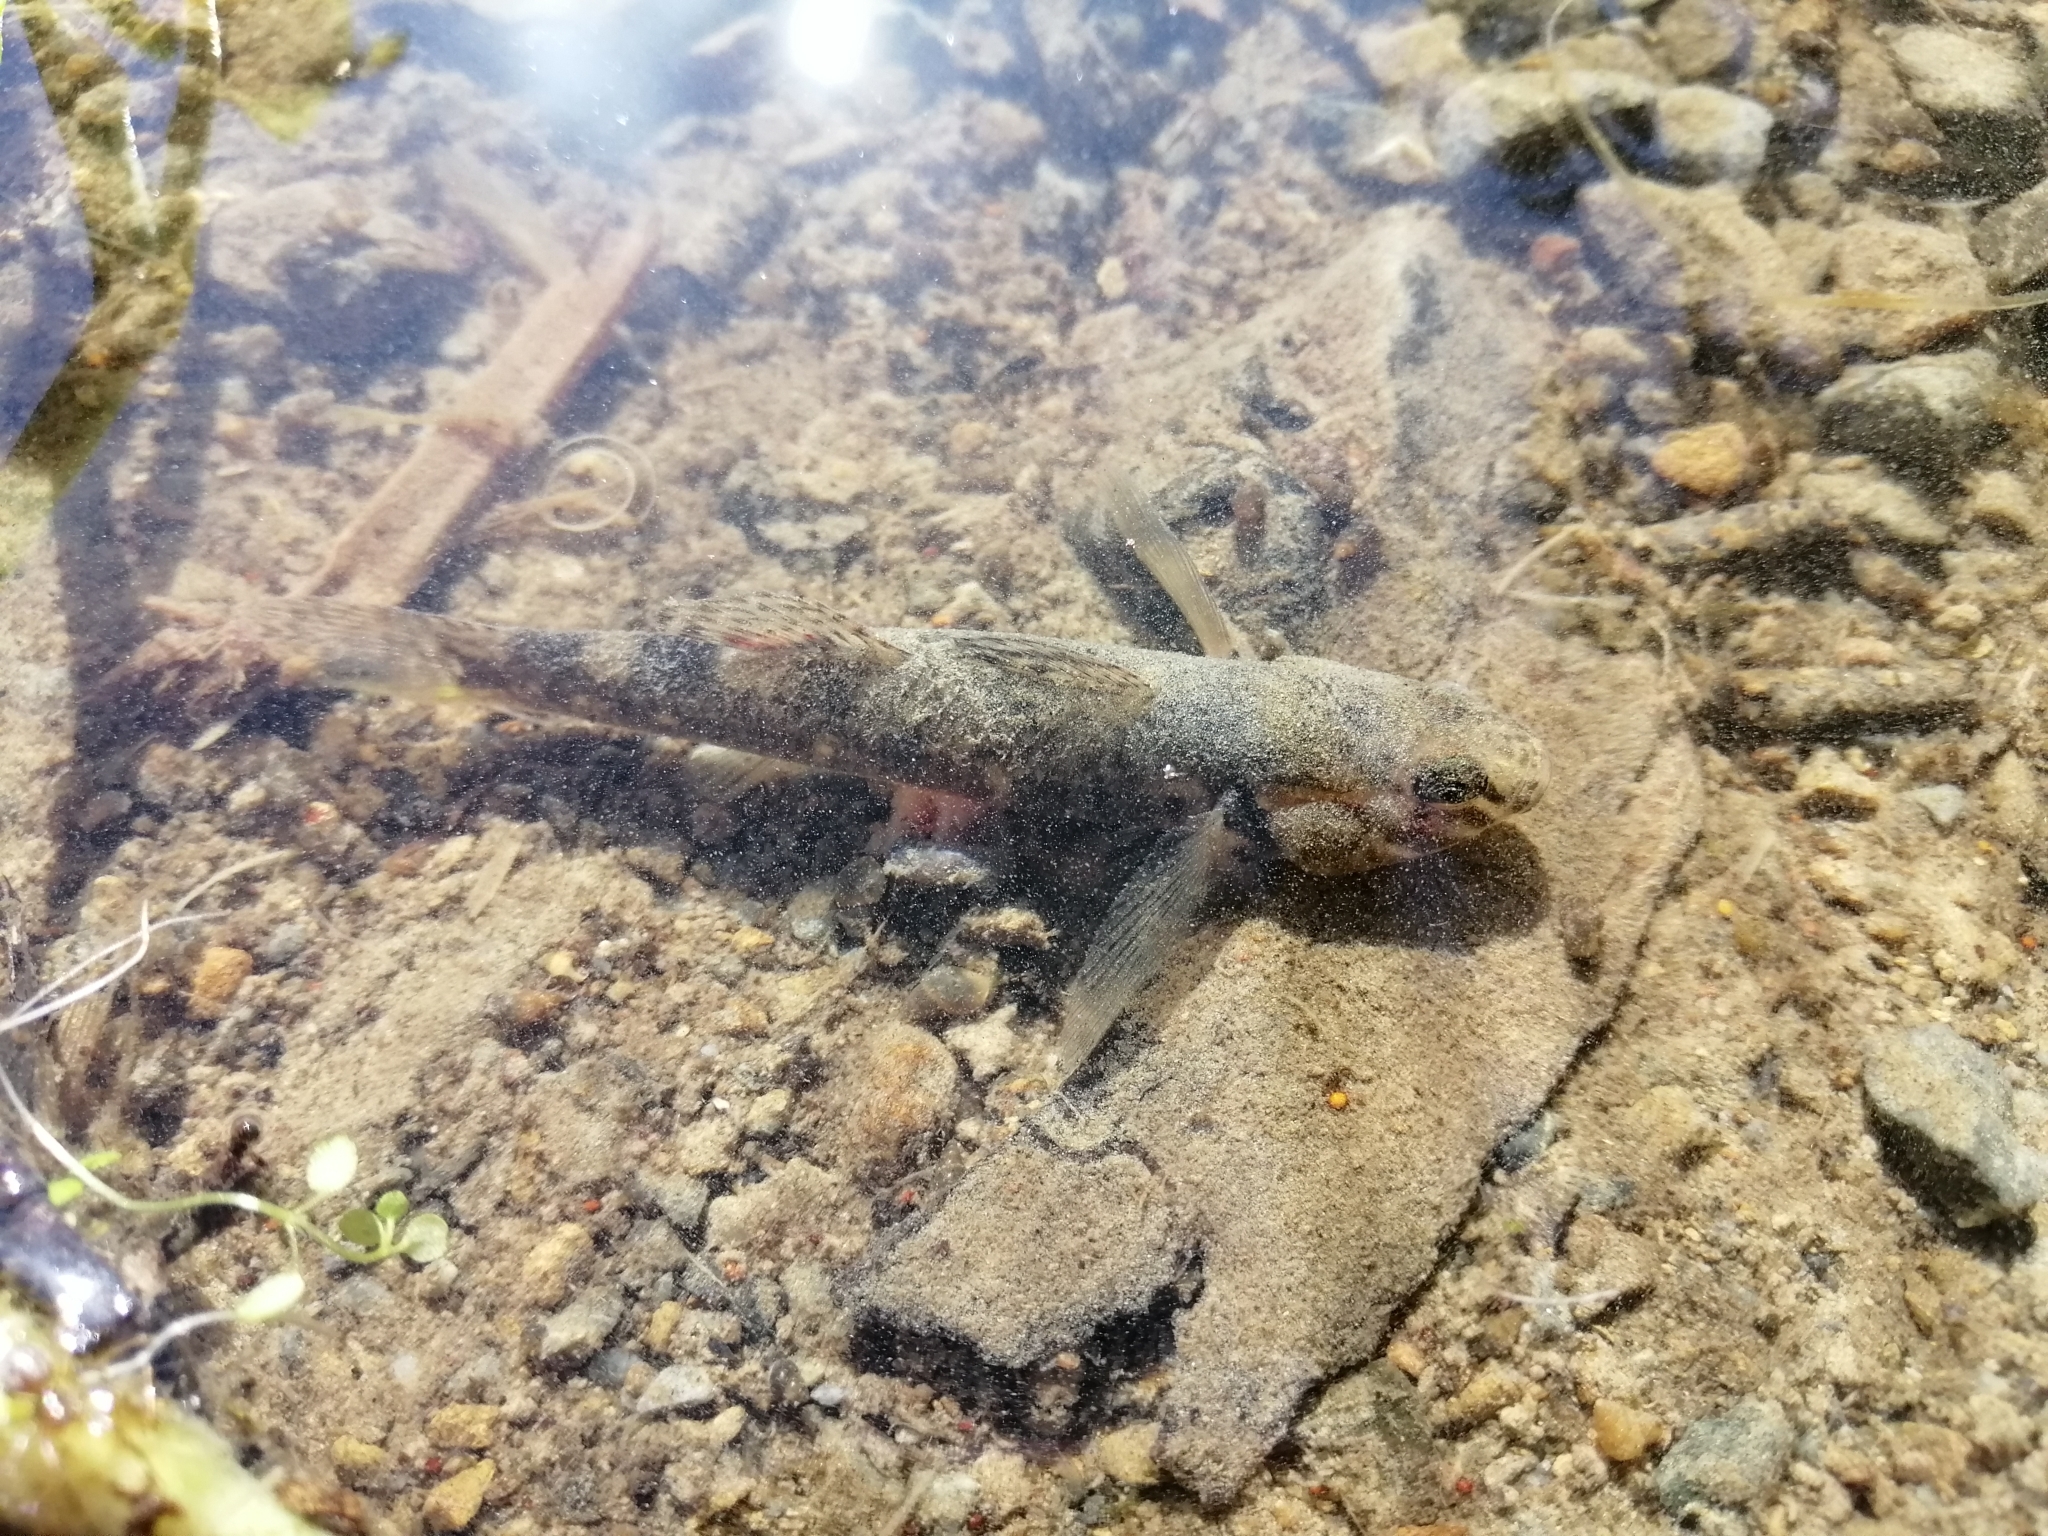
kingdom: Animalia
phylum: Chordata
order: Perciformes
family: Eleotridae
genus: Gobiomorphus
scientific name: Gobiomorphus huttoni
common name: Redfin bully
